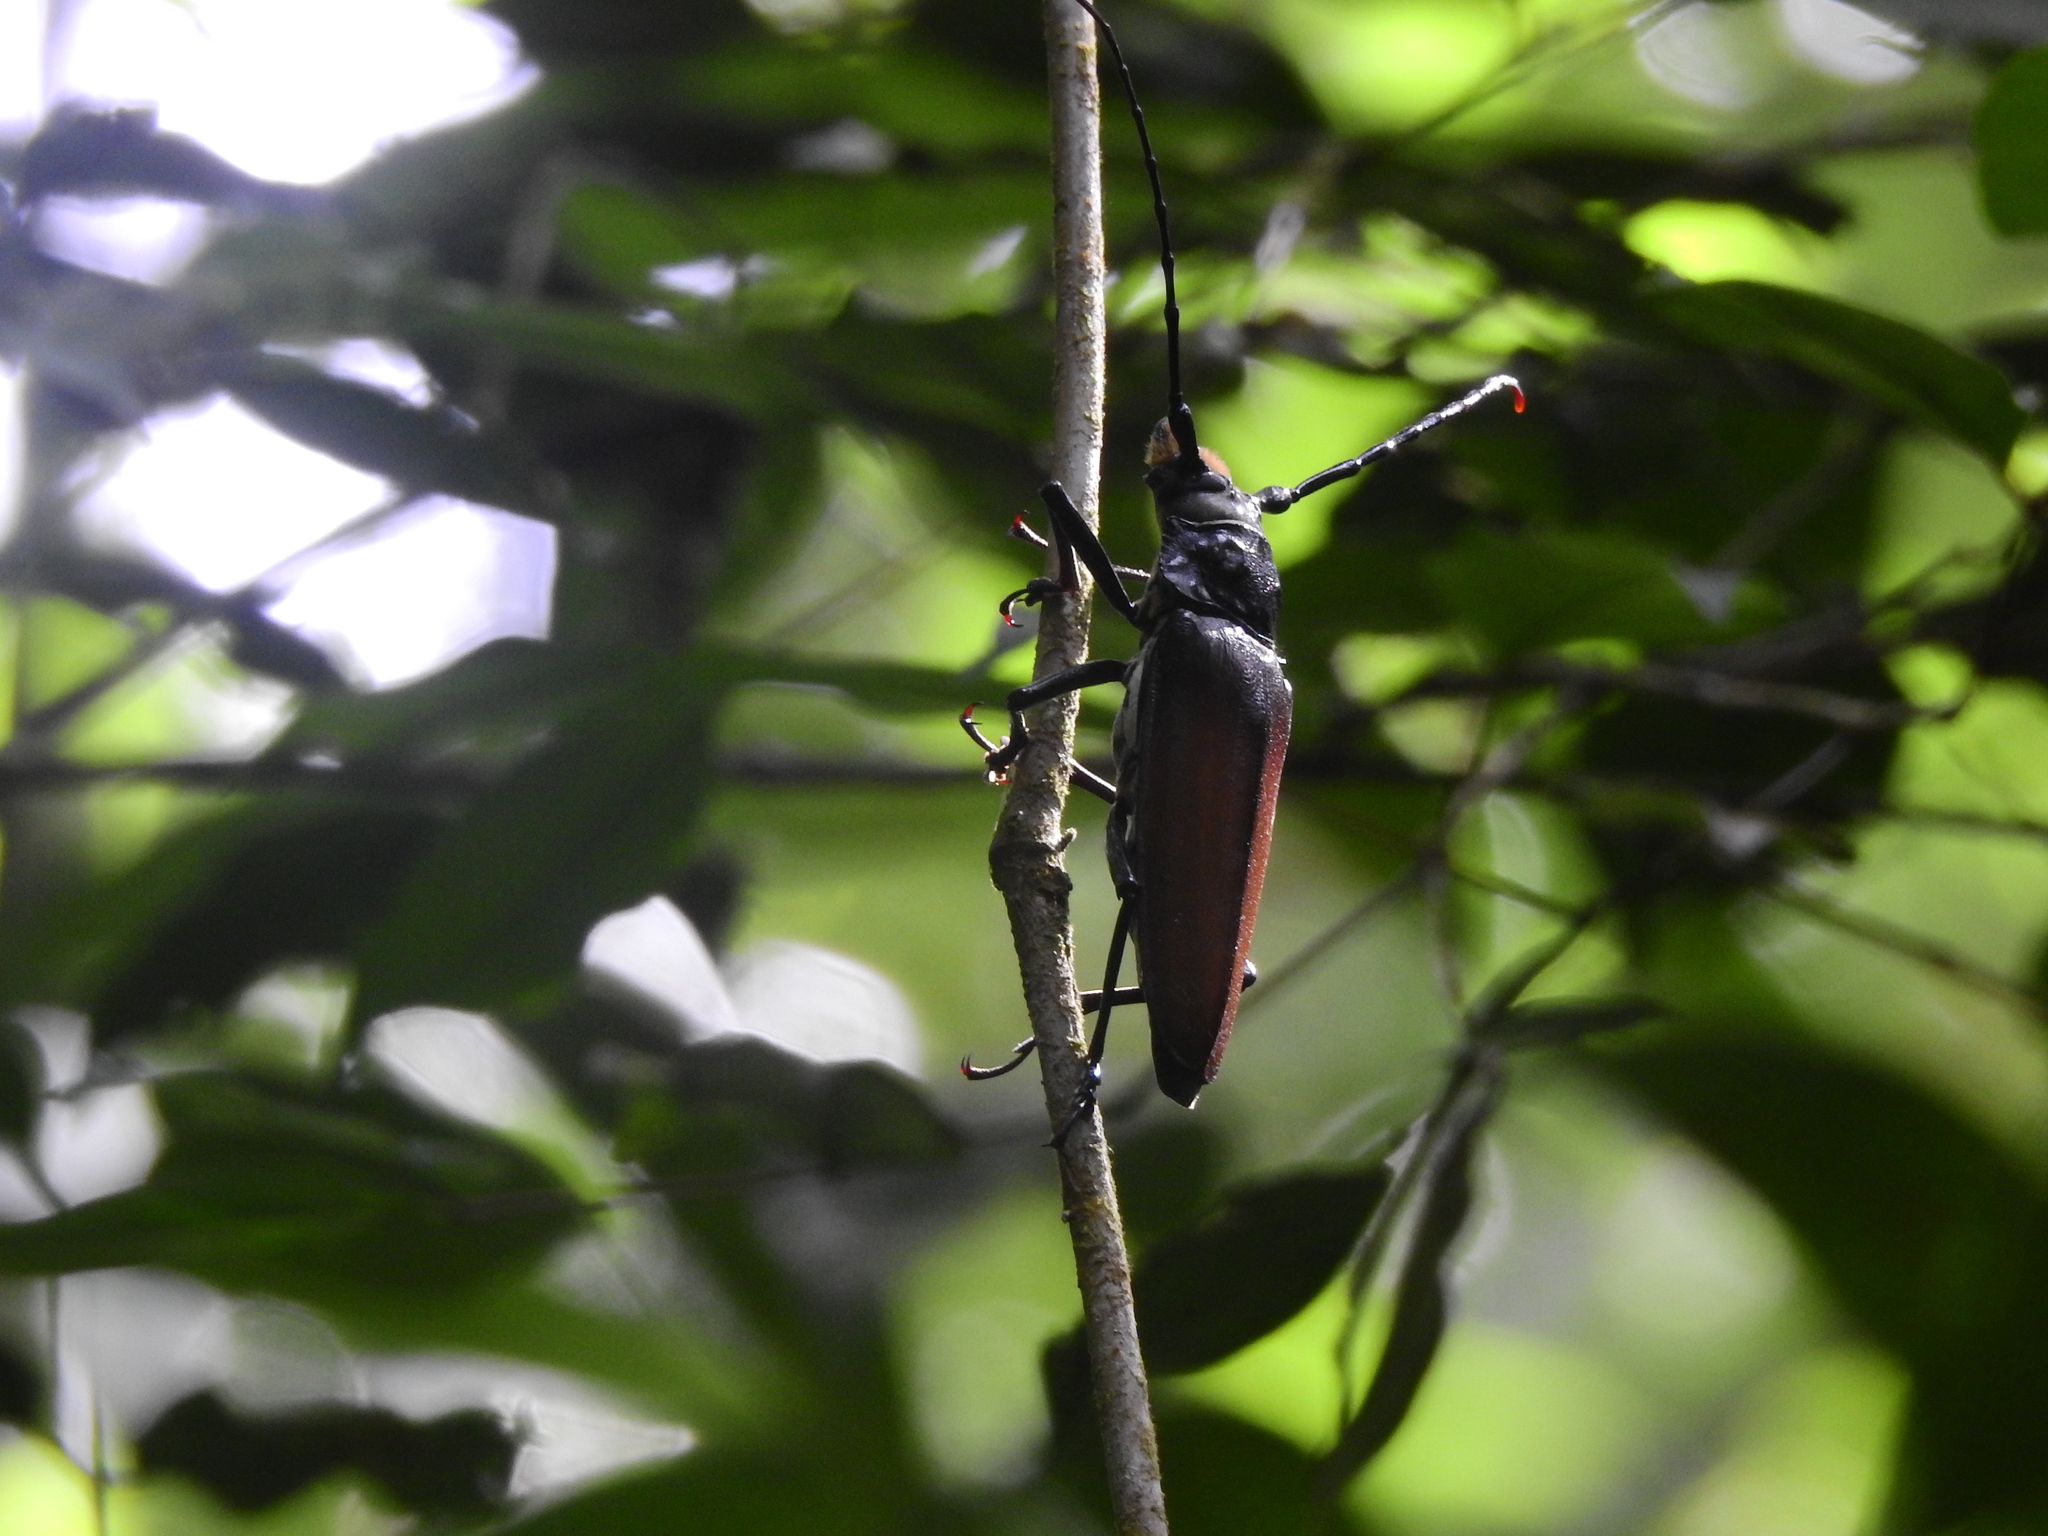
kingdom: Animalia
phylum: Arthropoda
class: Insecta
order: Coleoptera
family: Cerambycidae
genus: Callipogon
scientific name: Callipogon senex
